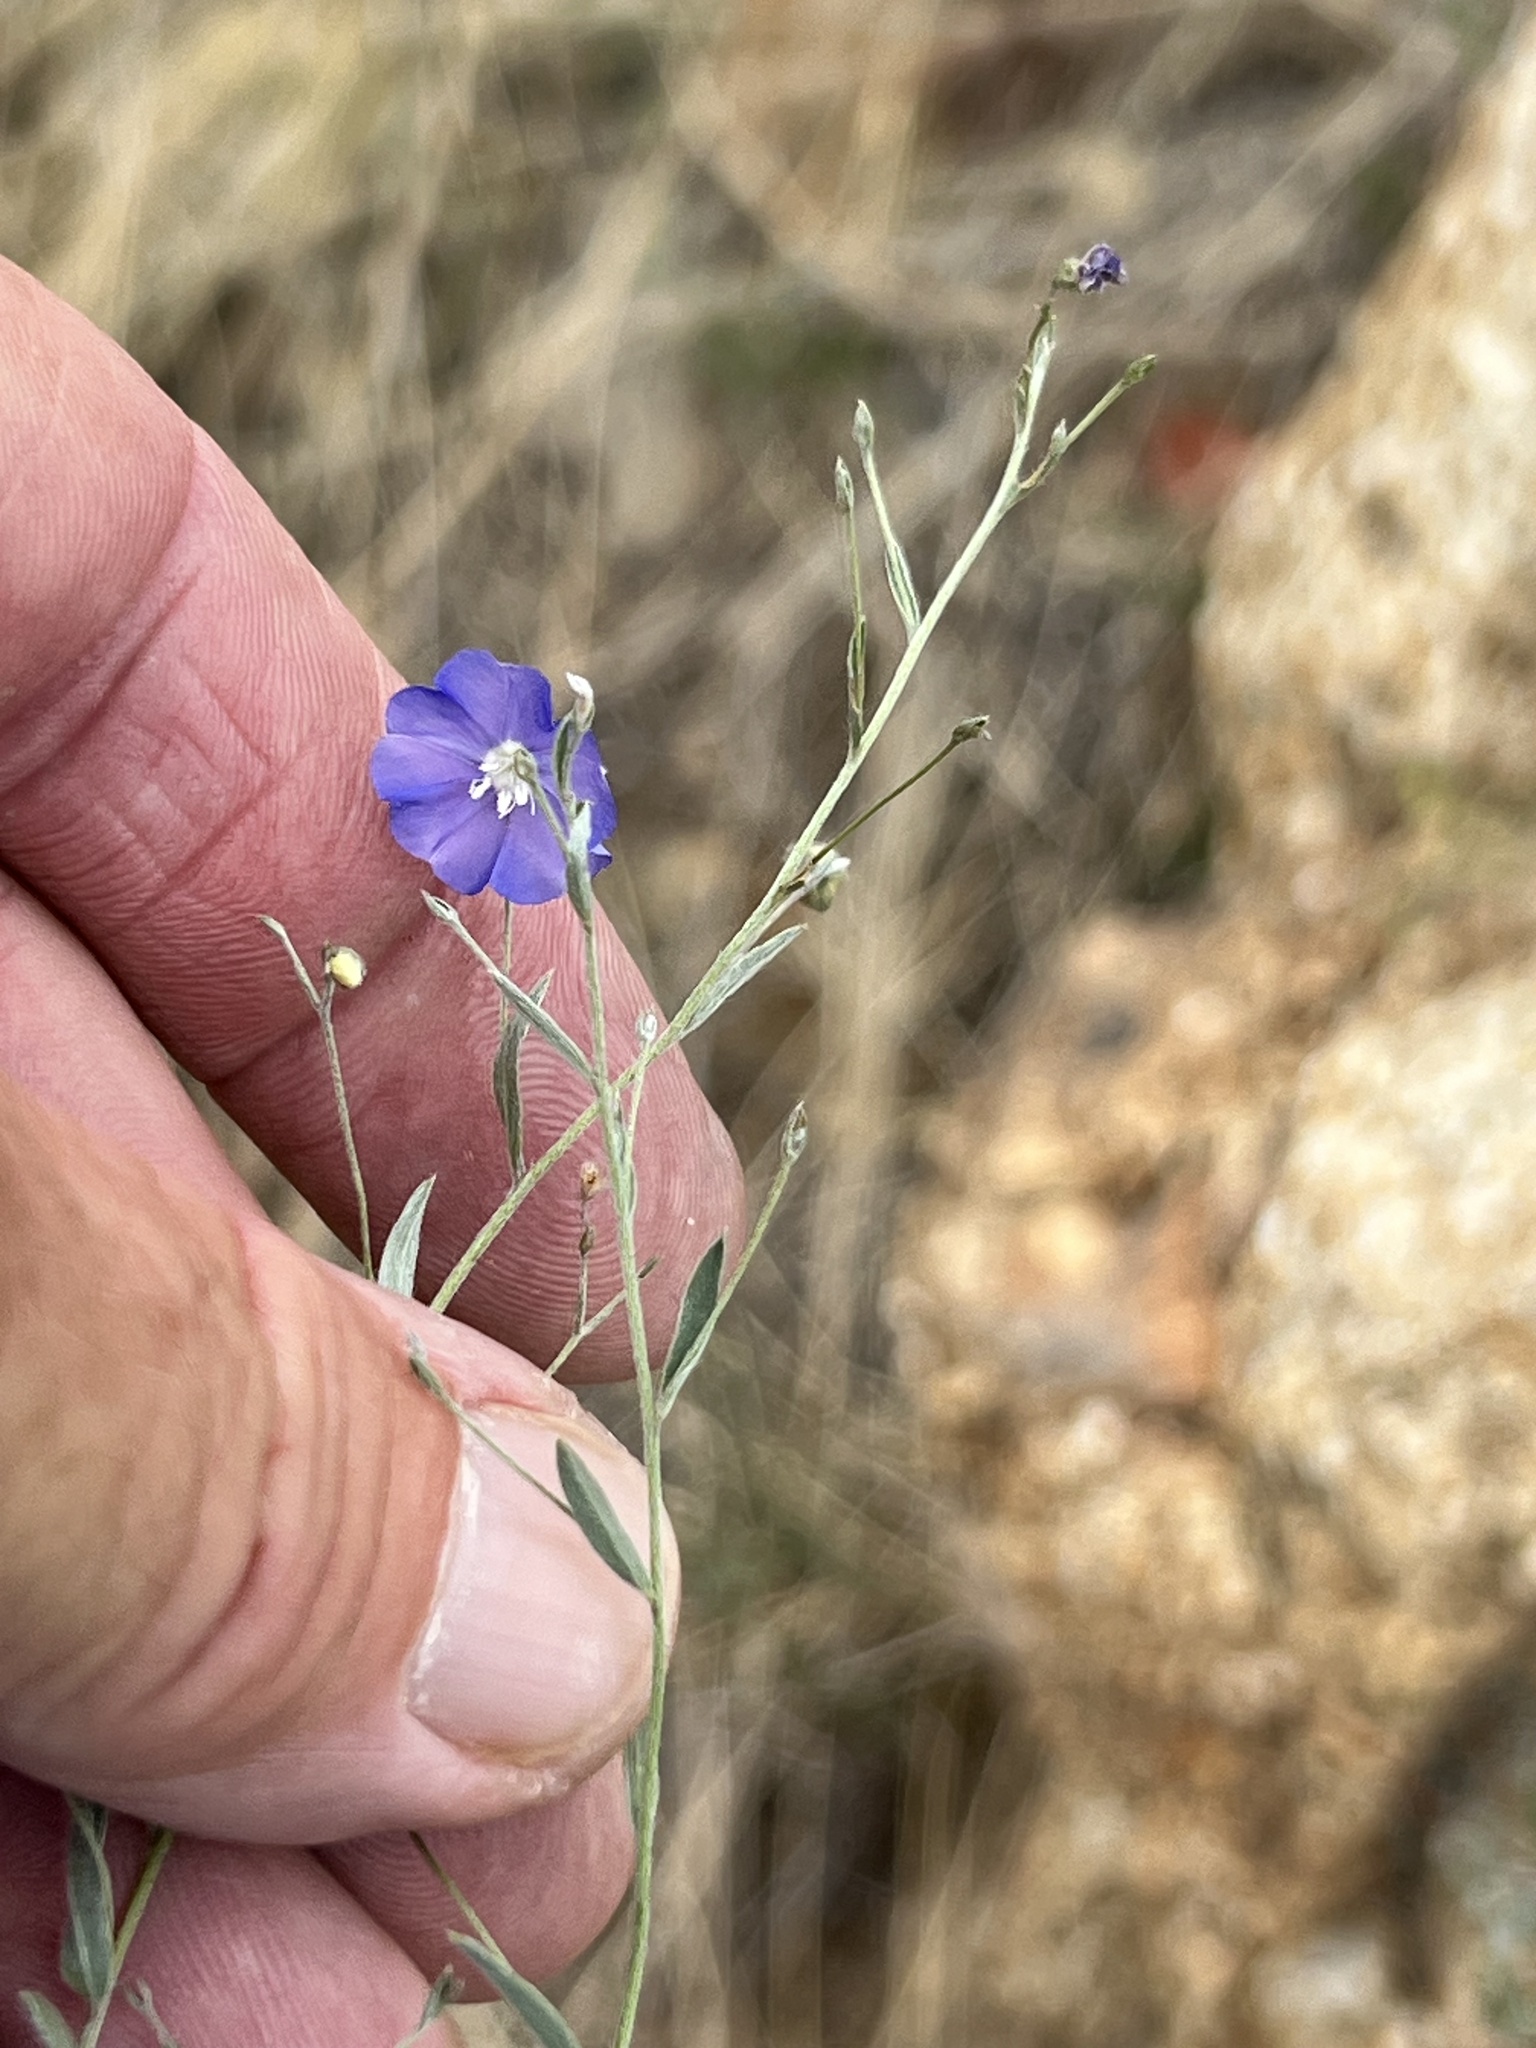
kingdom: Plantae
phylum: Tracheophyta
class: Magnoliopsida
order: Solanales
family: Convolvulaceae
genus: Evolvulus
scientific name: Evolvulus arizonicus
